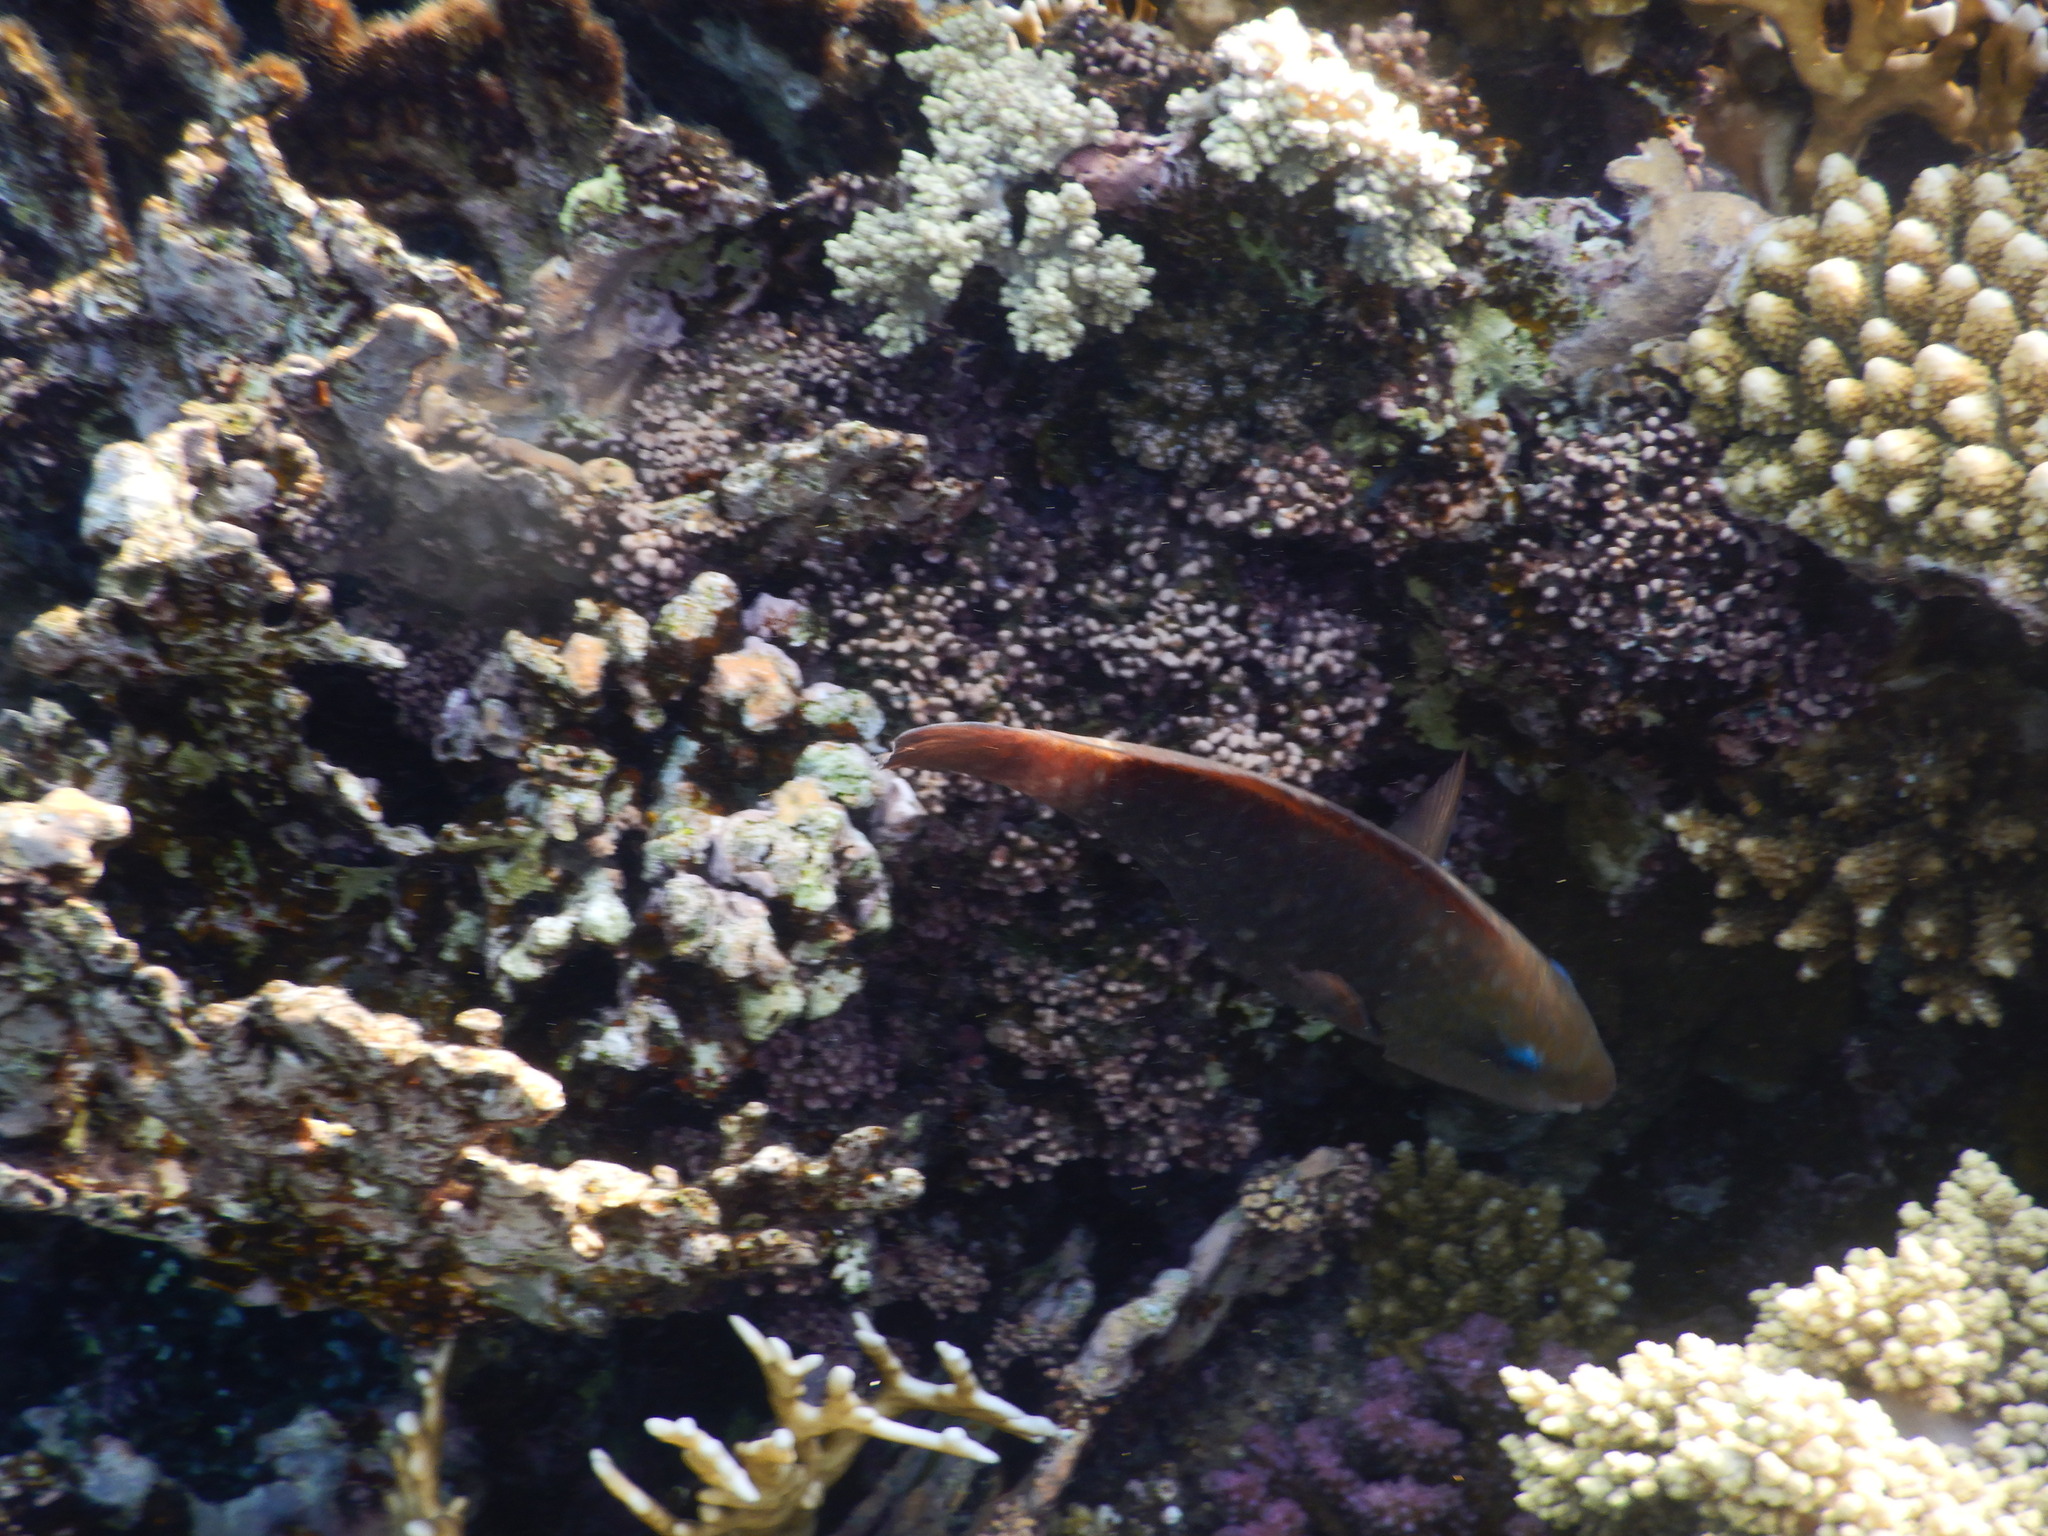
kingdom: Animalia
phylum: Chordata
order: Perciformes
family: Scaridae
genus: Chlorurus
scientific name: Chlorurus sordidus
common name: Bullethead parrotfish
